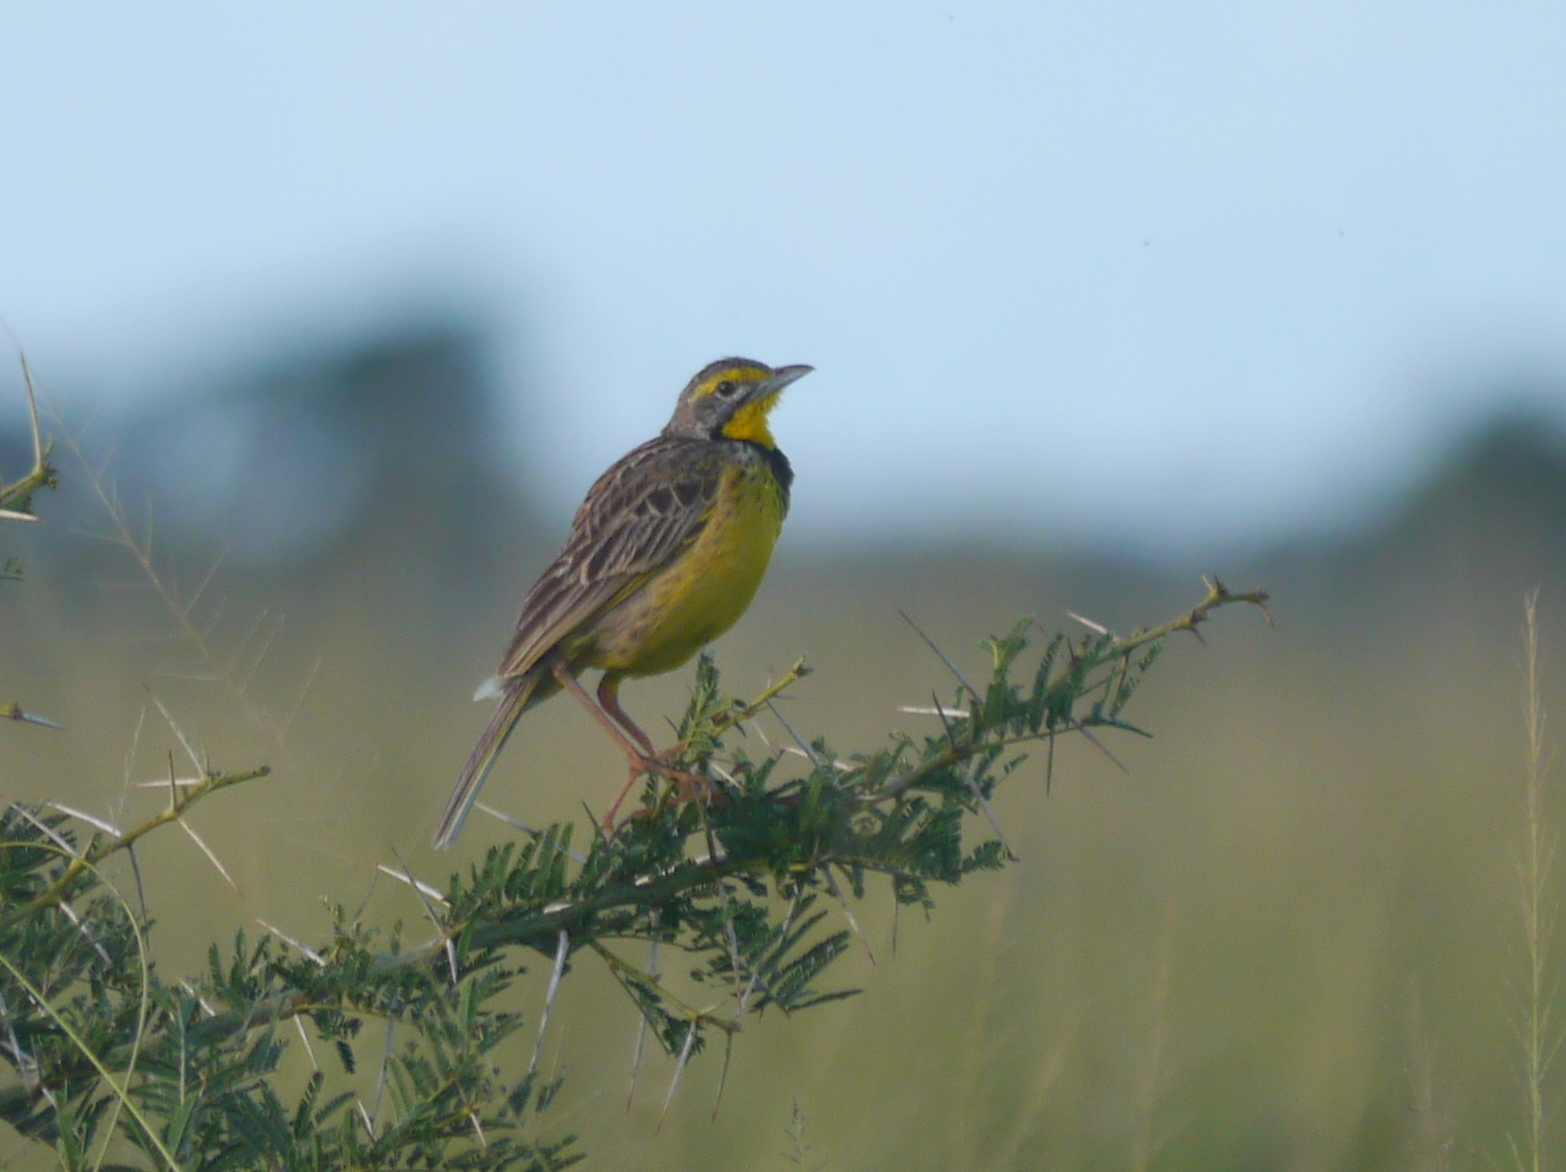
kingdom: Animalia
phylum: Chordata
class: Aves
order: Passeriformes
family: Motacillidae
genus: Macronyx
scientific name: Macronyx croceus
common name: Yellow-throated longclaw
